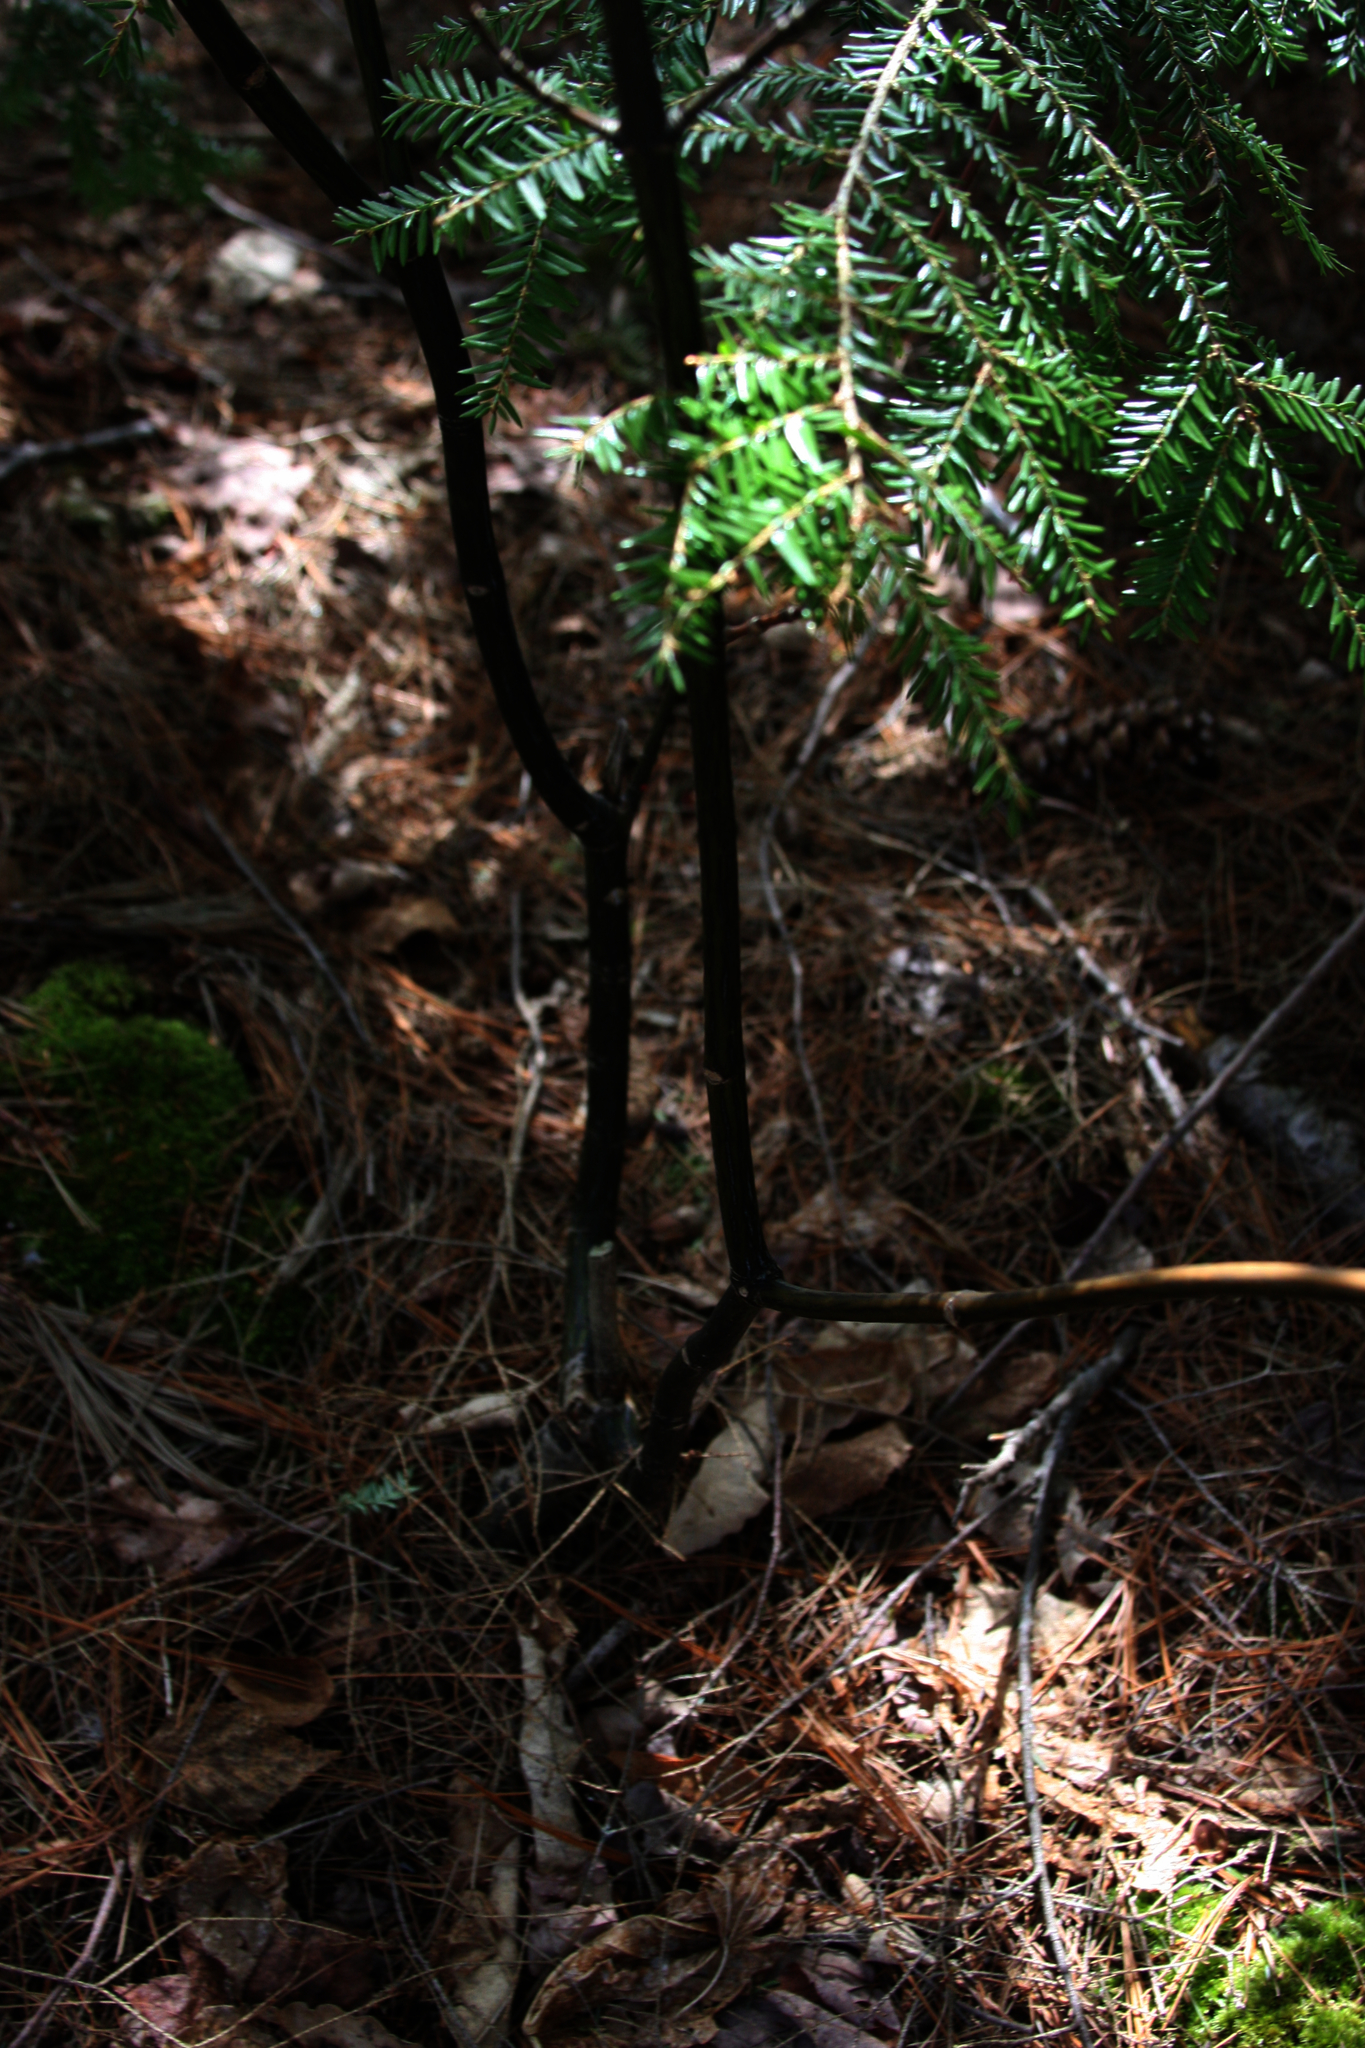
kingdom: Plantae
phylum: Tracheophyta
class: Magnoliopsida
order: Sapindales
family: Sapindaceae
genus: Acer
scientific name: Acer pensylvanicum
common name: Moosewood
